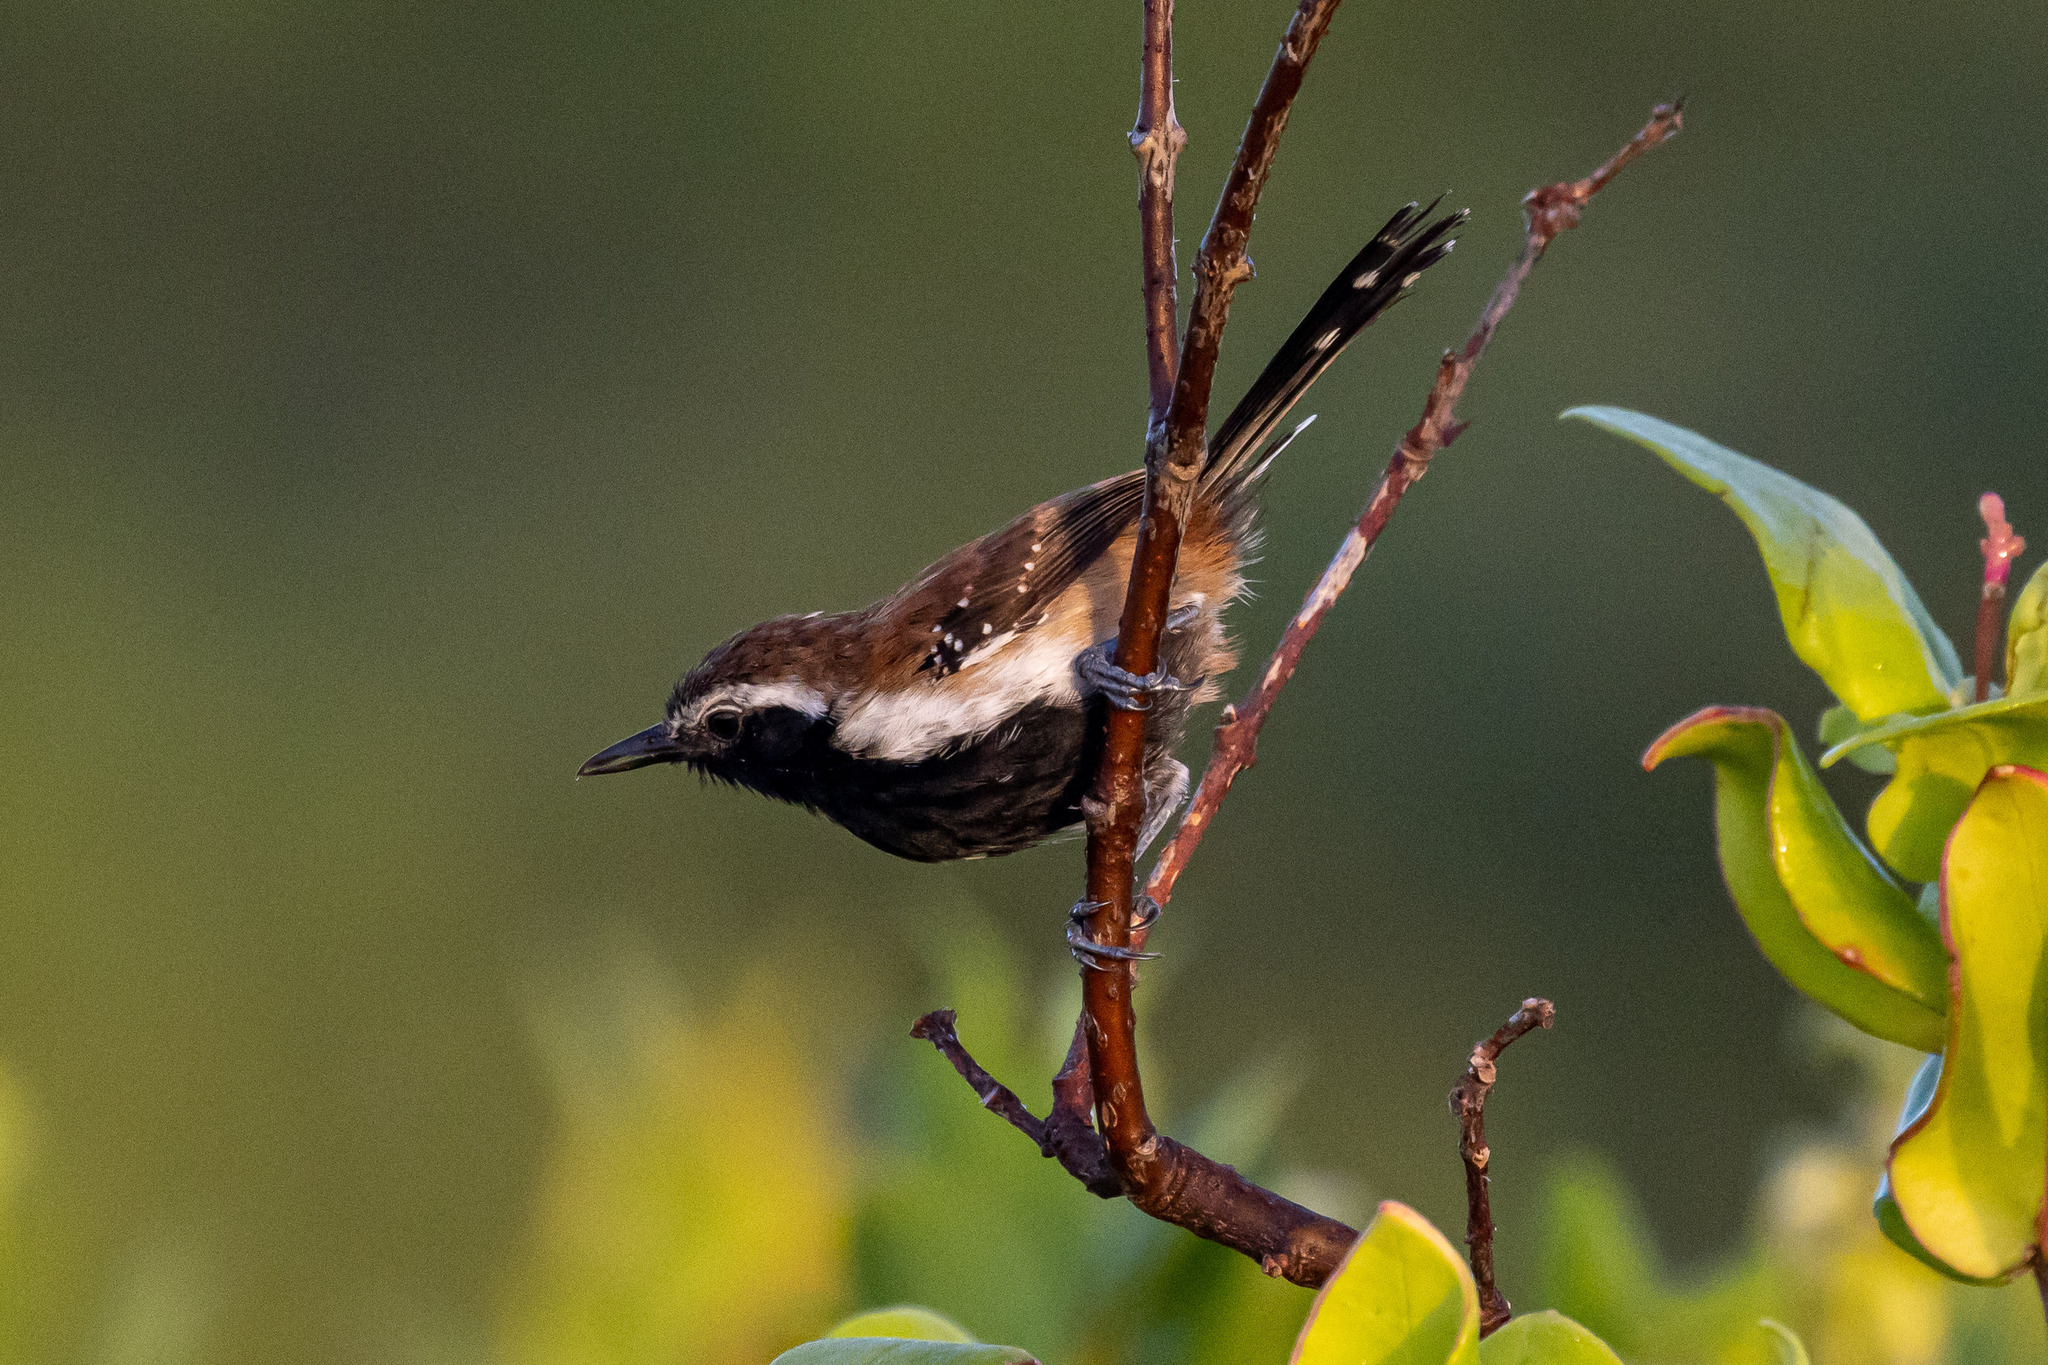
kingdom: Animalia
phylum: Chordata
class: Aves
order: Passeriformes
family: Thamnophilidae
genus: Formicivora
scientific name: Formicivora rufa
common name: Rusty-backed antwren
